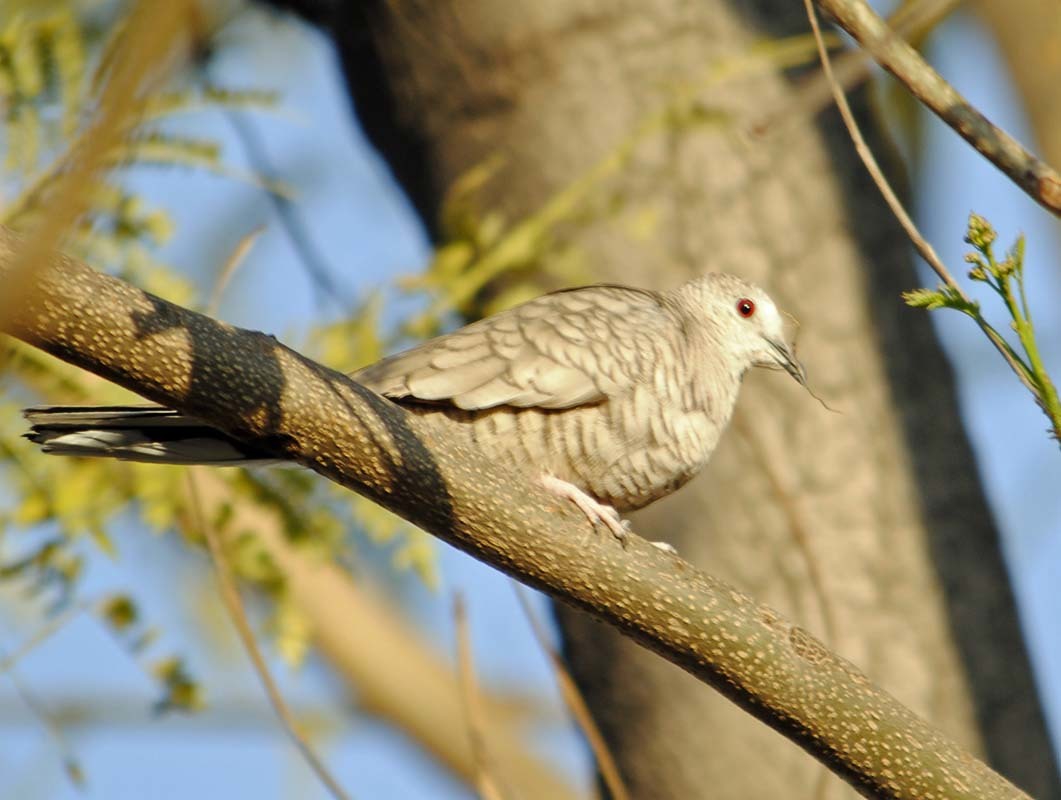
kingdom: Animalia
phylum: Chordata
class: Aves
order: Columbiformes
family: Columbidae
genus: Columbina
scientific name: Columbina inca
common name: Inca dove
